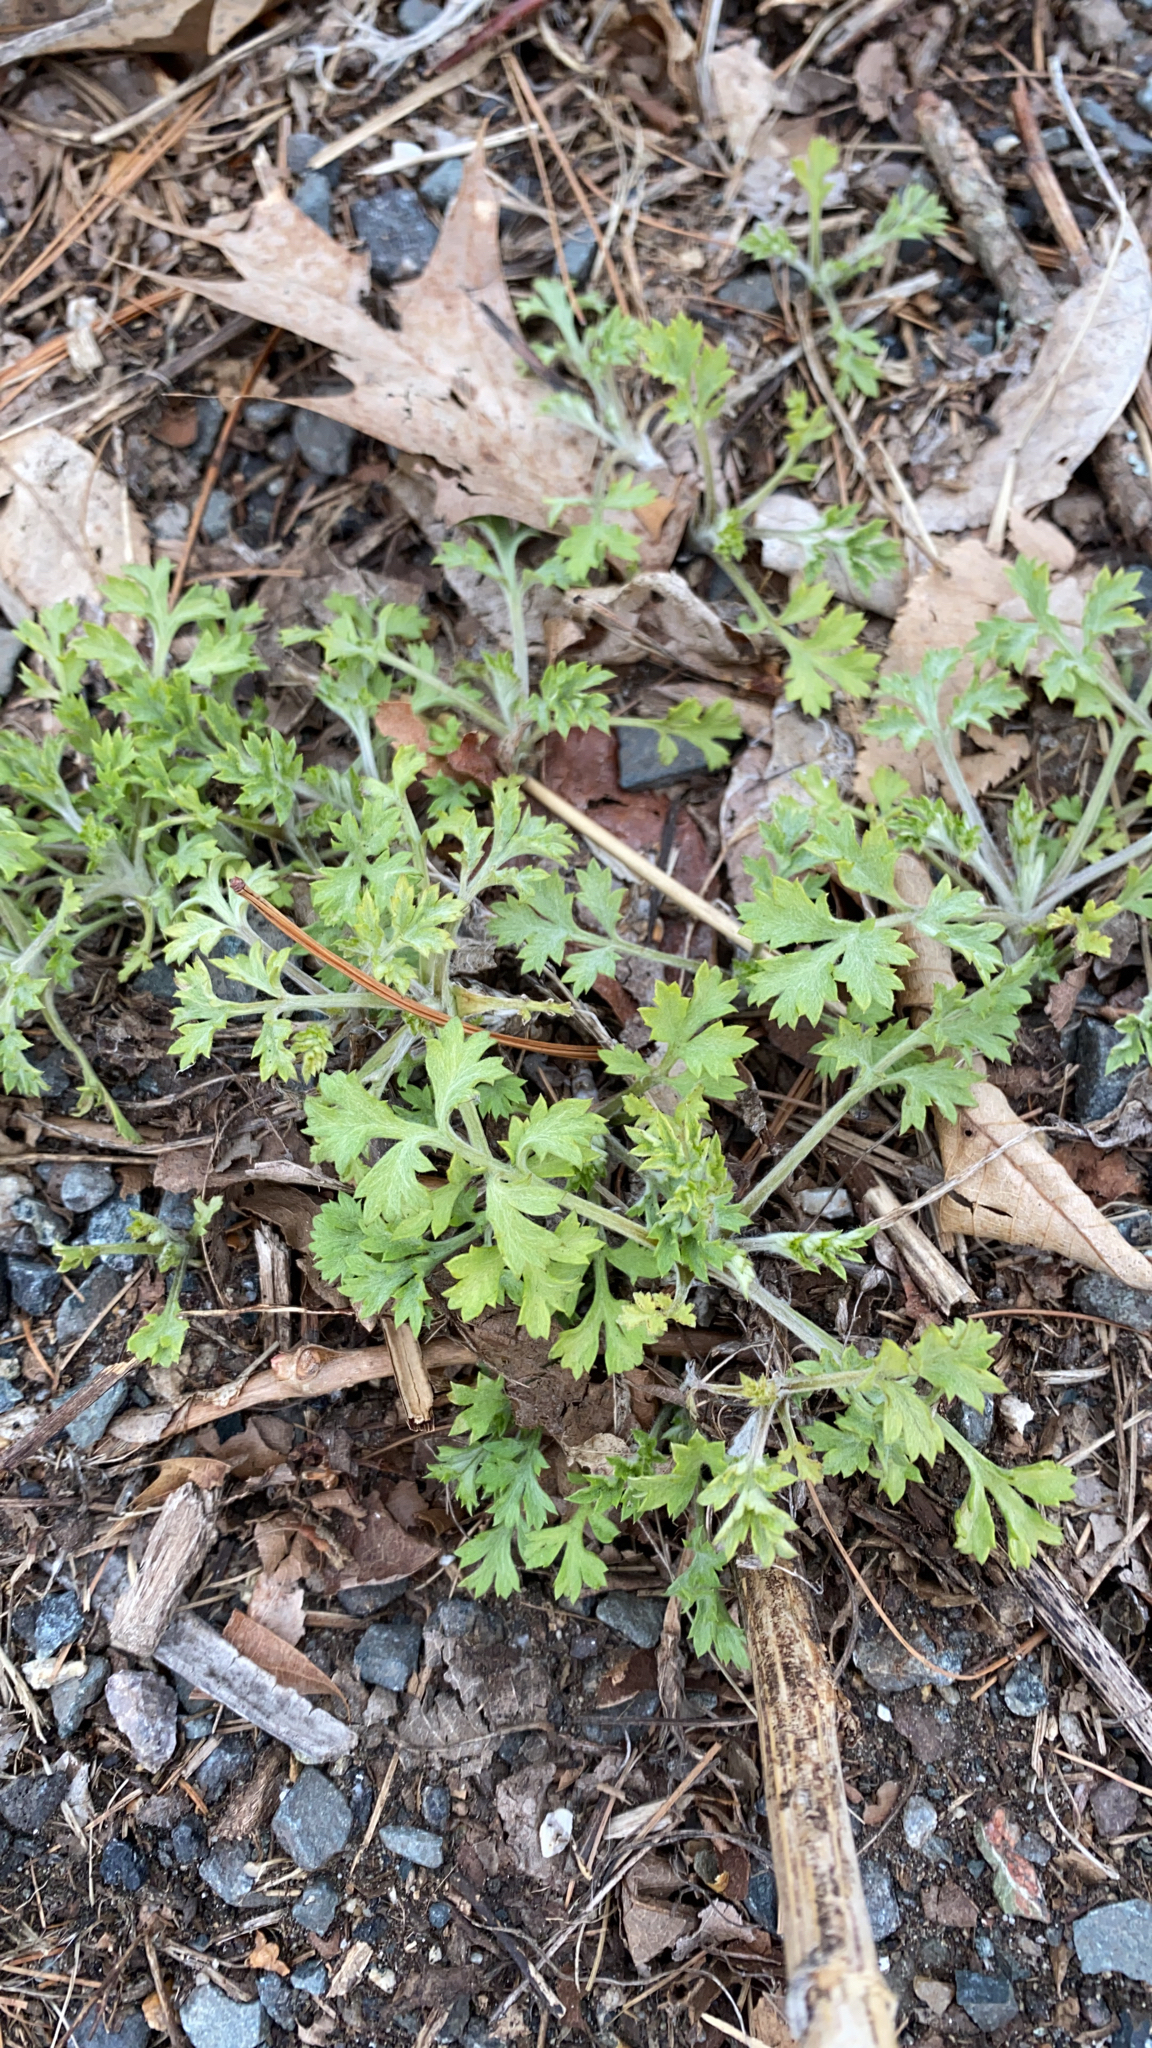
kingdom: Plantae
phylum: Tracheophyta
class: Magnoliopsida
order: Asterales
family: Asteraceae
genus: Artemisia
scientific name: Artemisia vulgaris
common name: Mugwort
